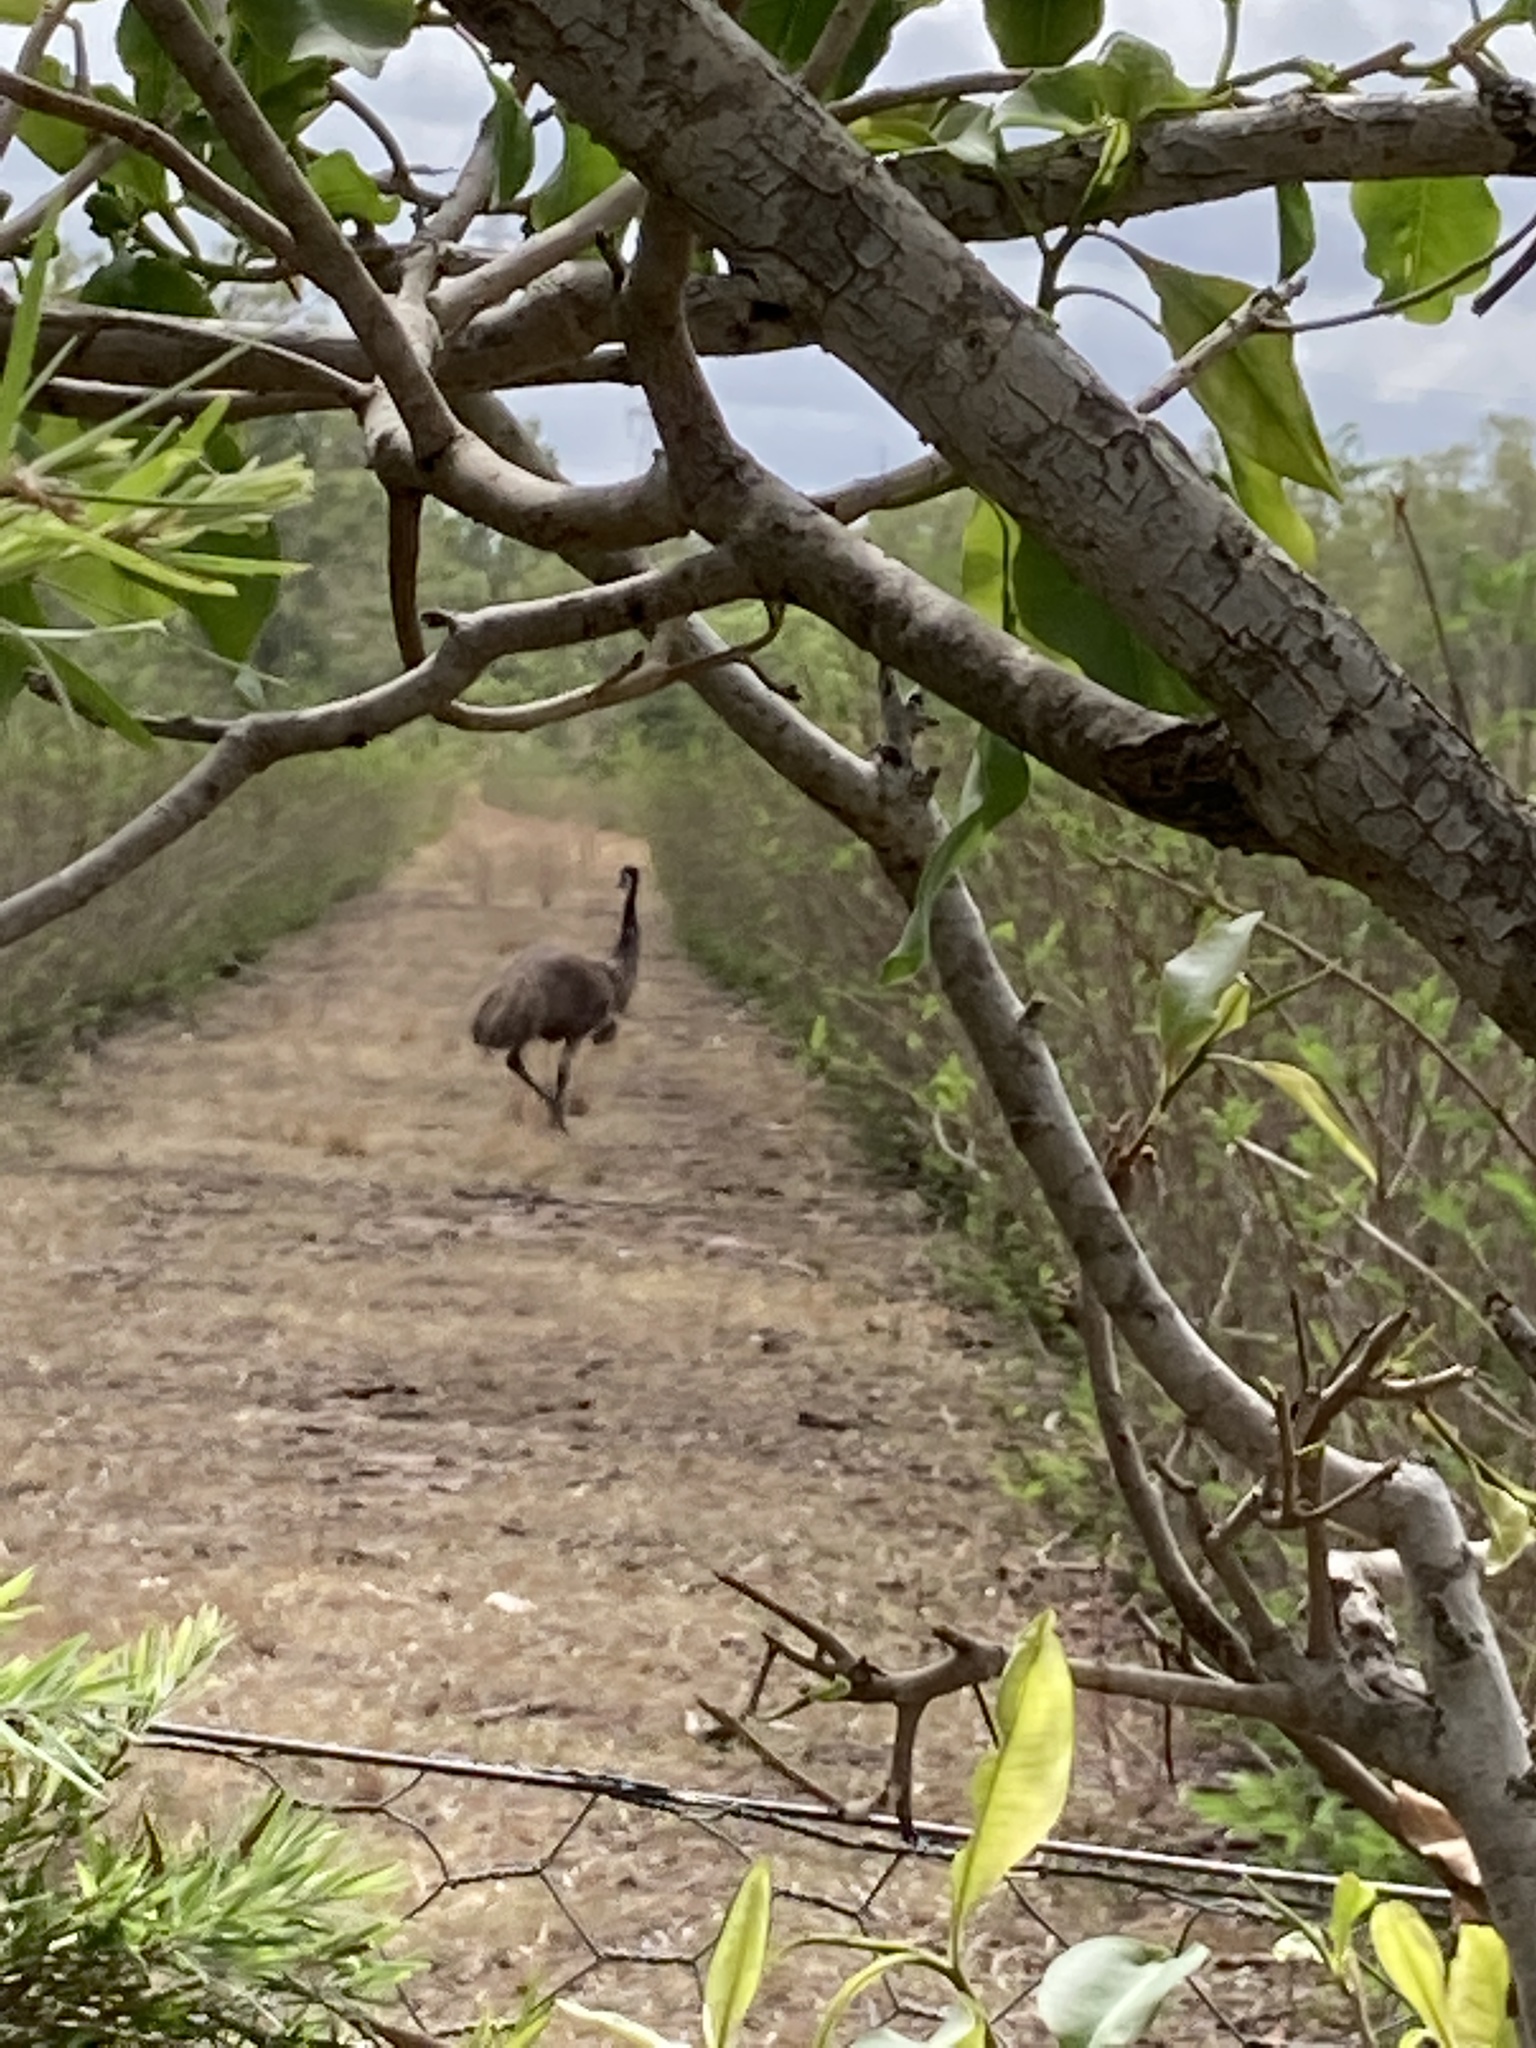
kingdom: Animalia
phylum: Chordata
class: Aves
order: Casuariiformes
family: Dromaiidae
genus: Dromaius
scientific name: Dromaius novaehollandiae
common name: Emu
